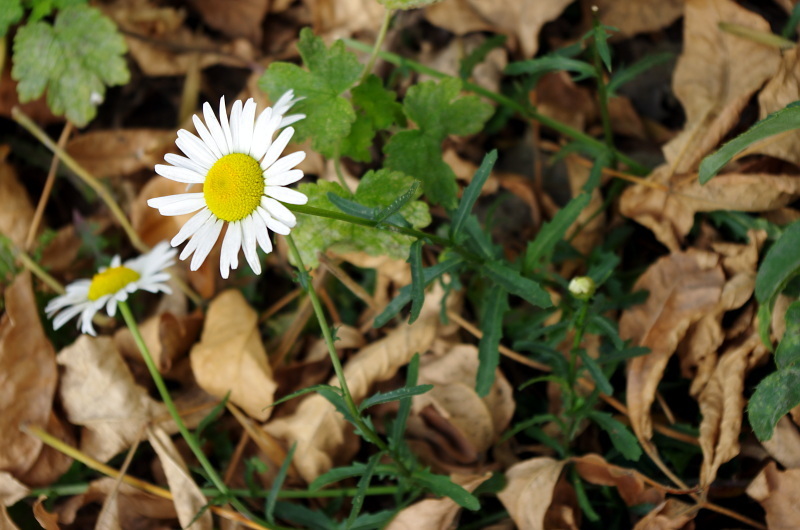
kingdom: Plantae
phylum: Tracheophyta
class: Magnoliopsida
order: Asterales
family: Asteraceae
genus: Leucanthemum
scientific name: Leucanthemum vulgare
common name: Oxeye daisy
